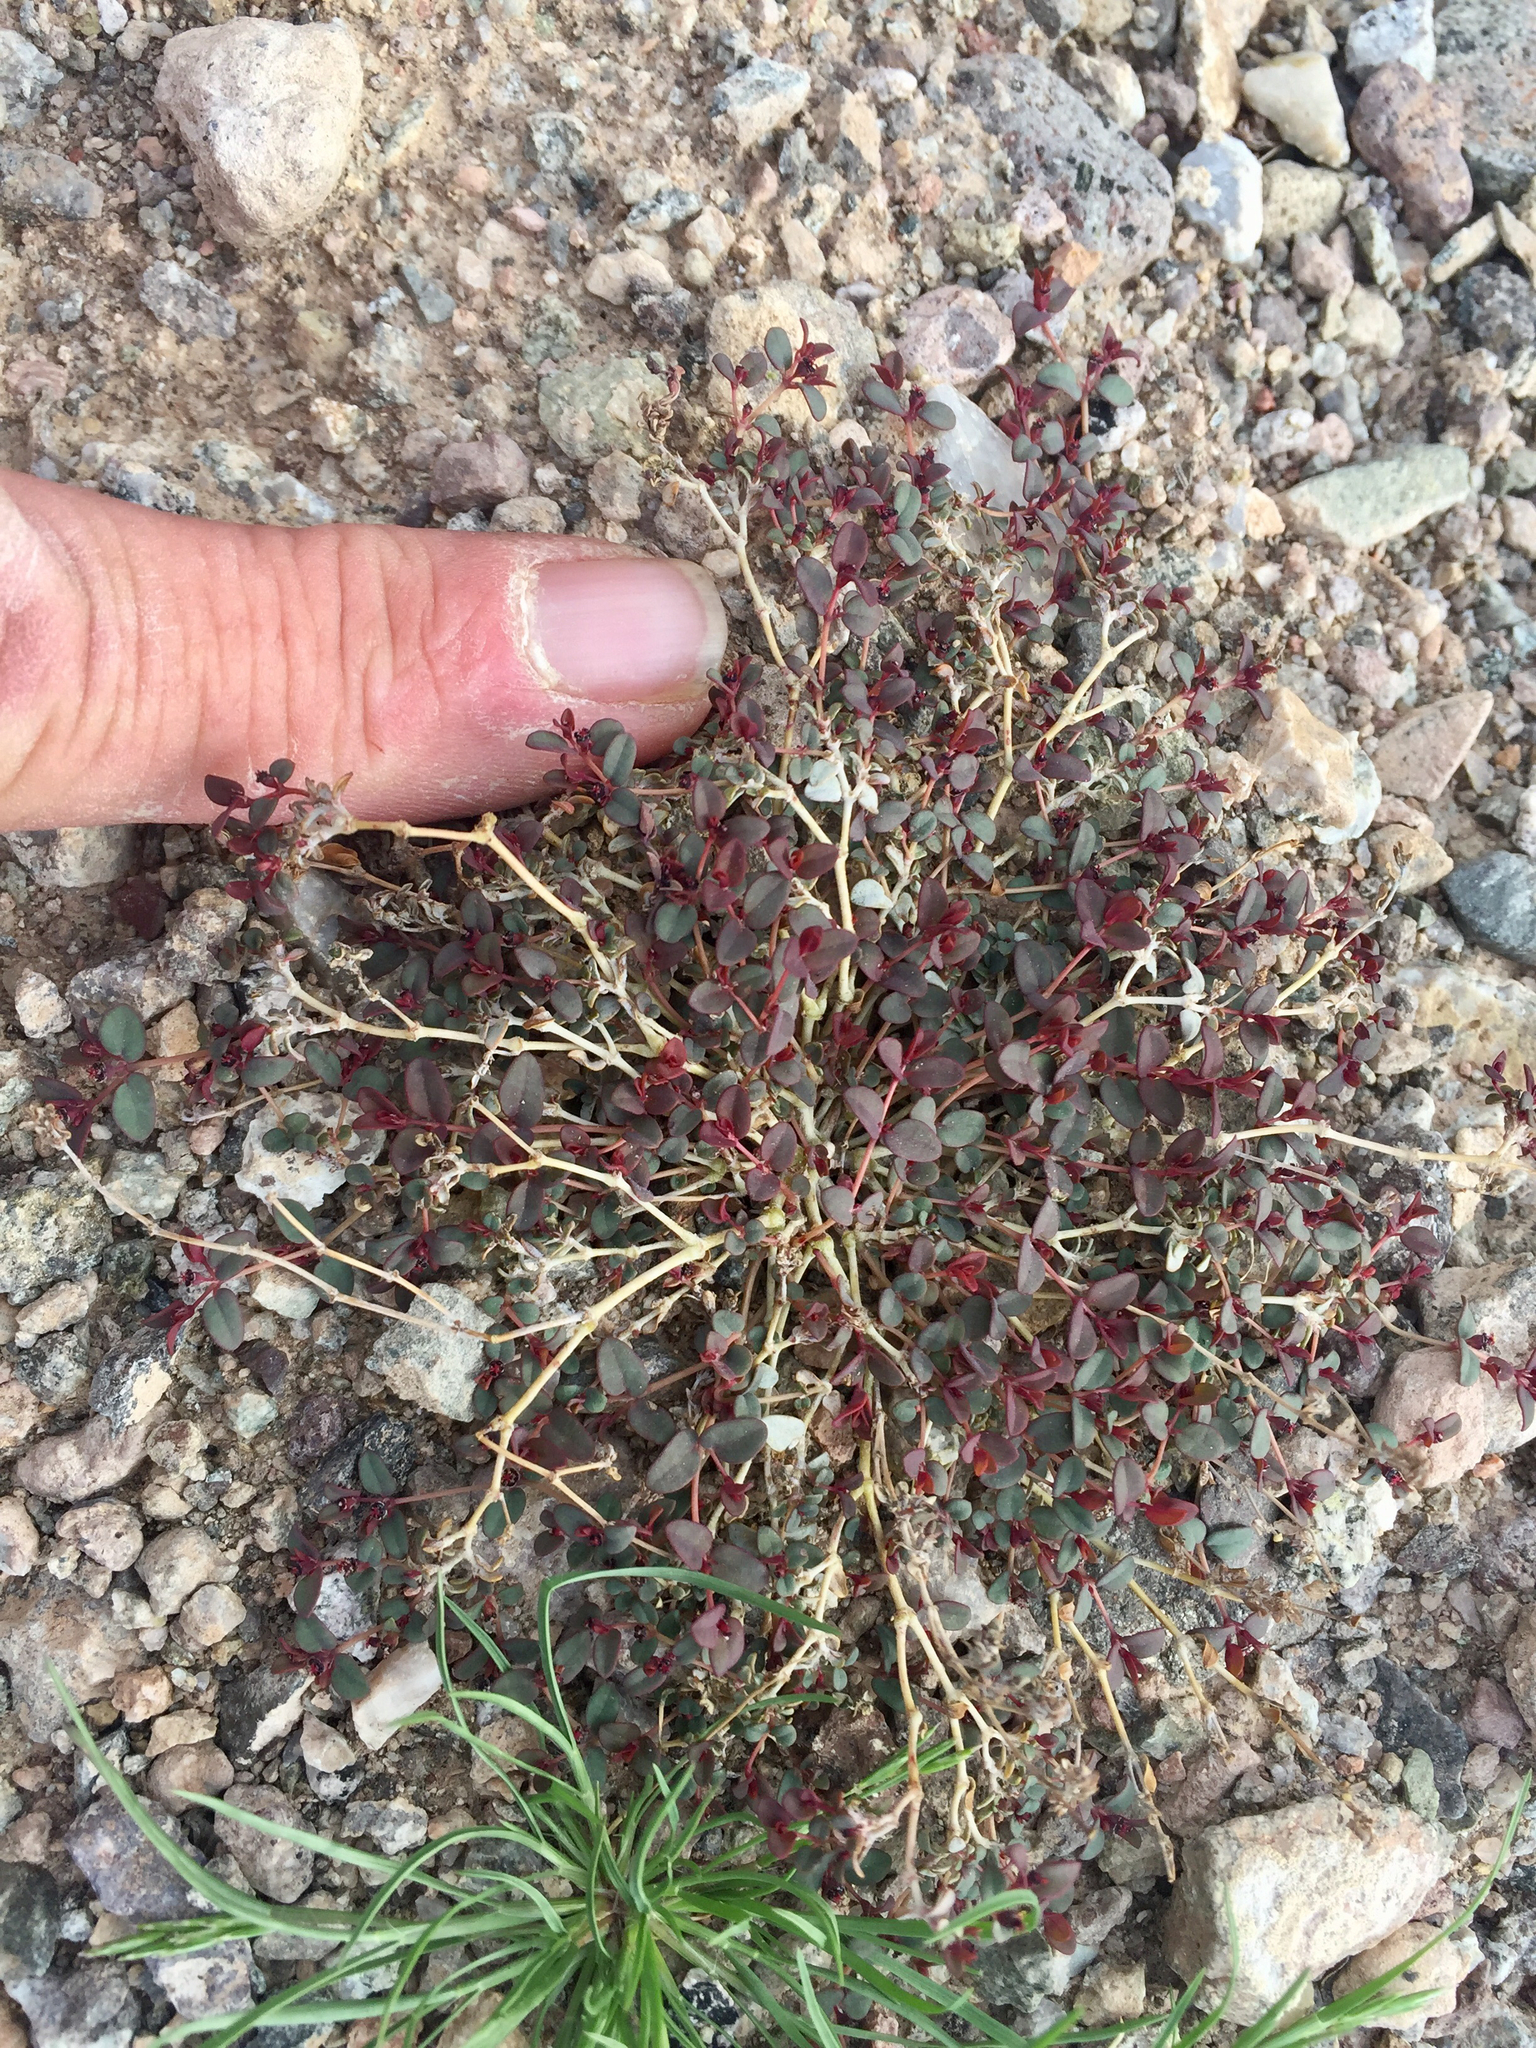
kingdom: Plantae
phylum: Tracheophyta
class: Magnoliopsida
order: Malpighiales
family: Euphorbiaceae
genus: Euphorbia
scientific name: Euphorbia polycarpa
